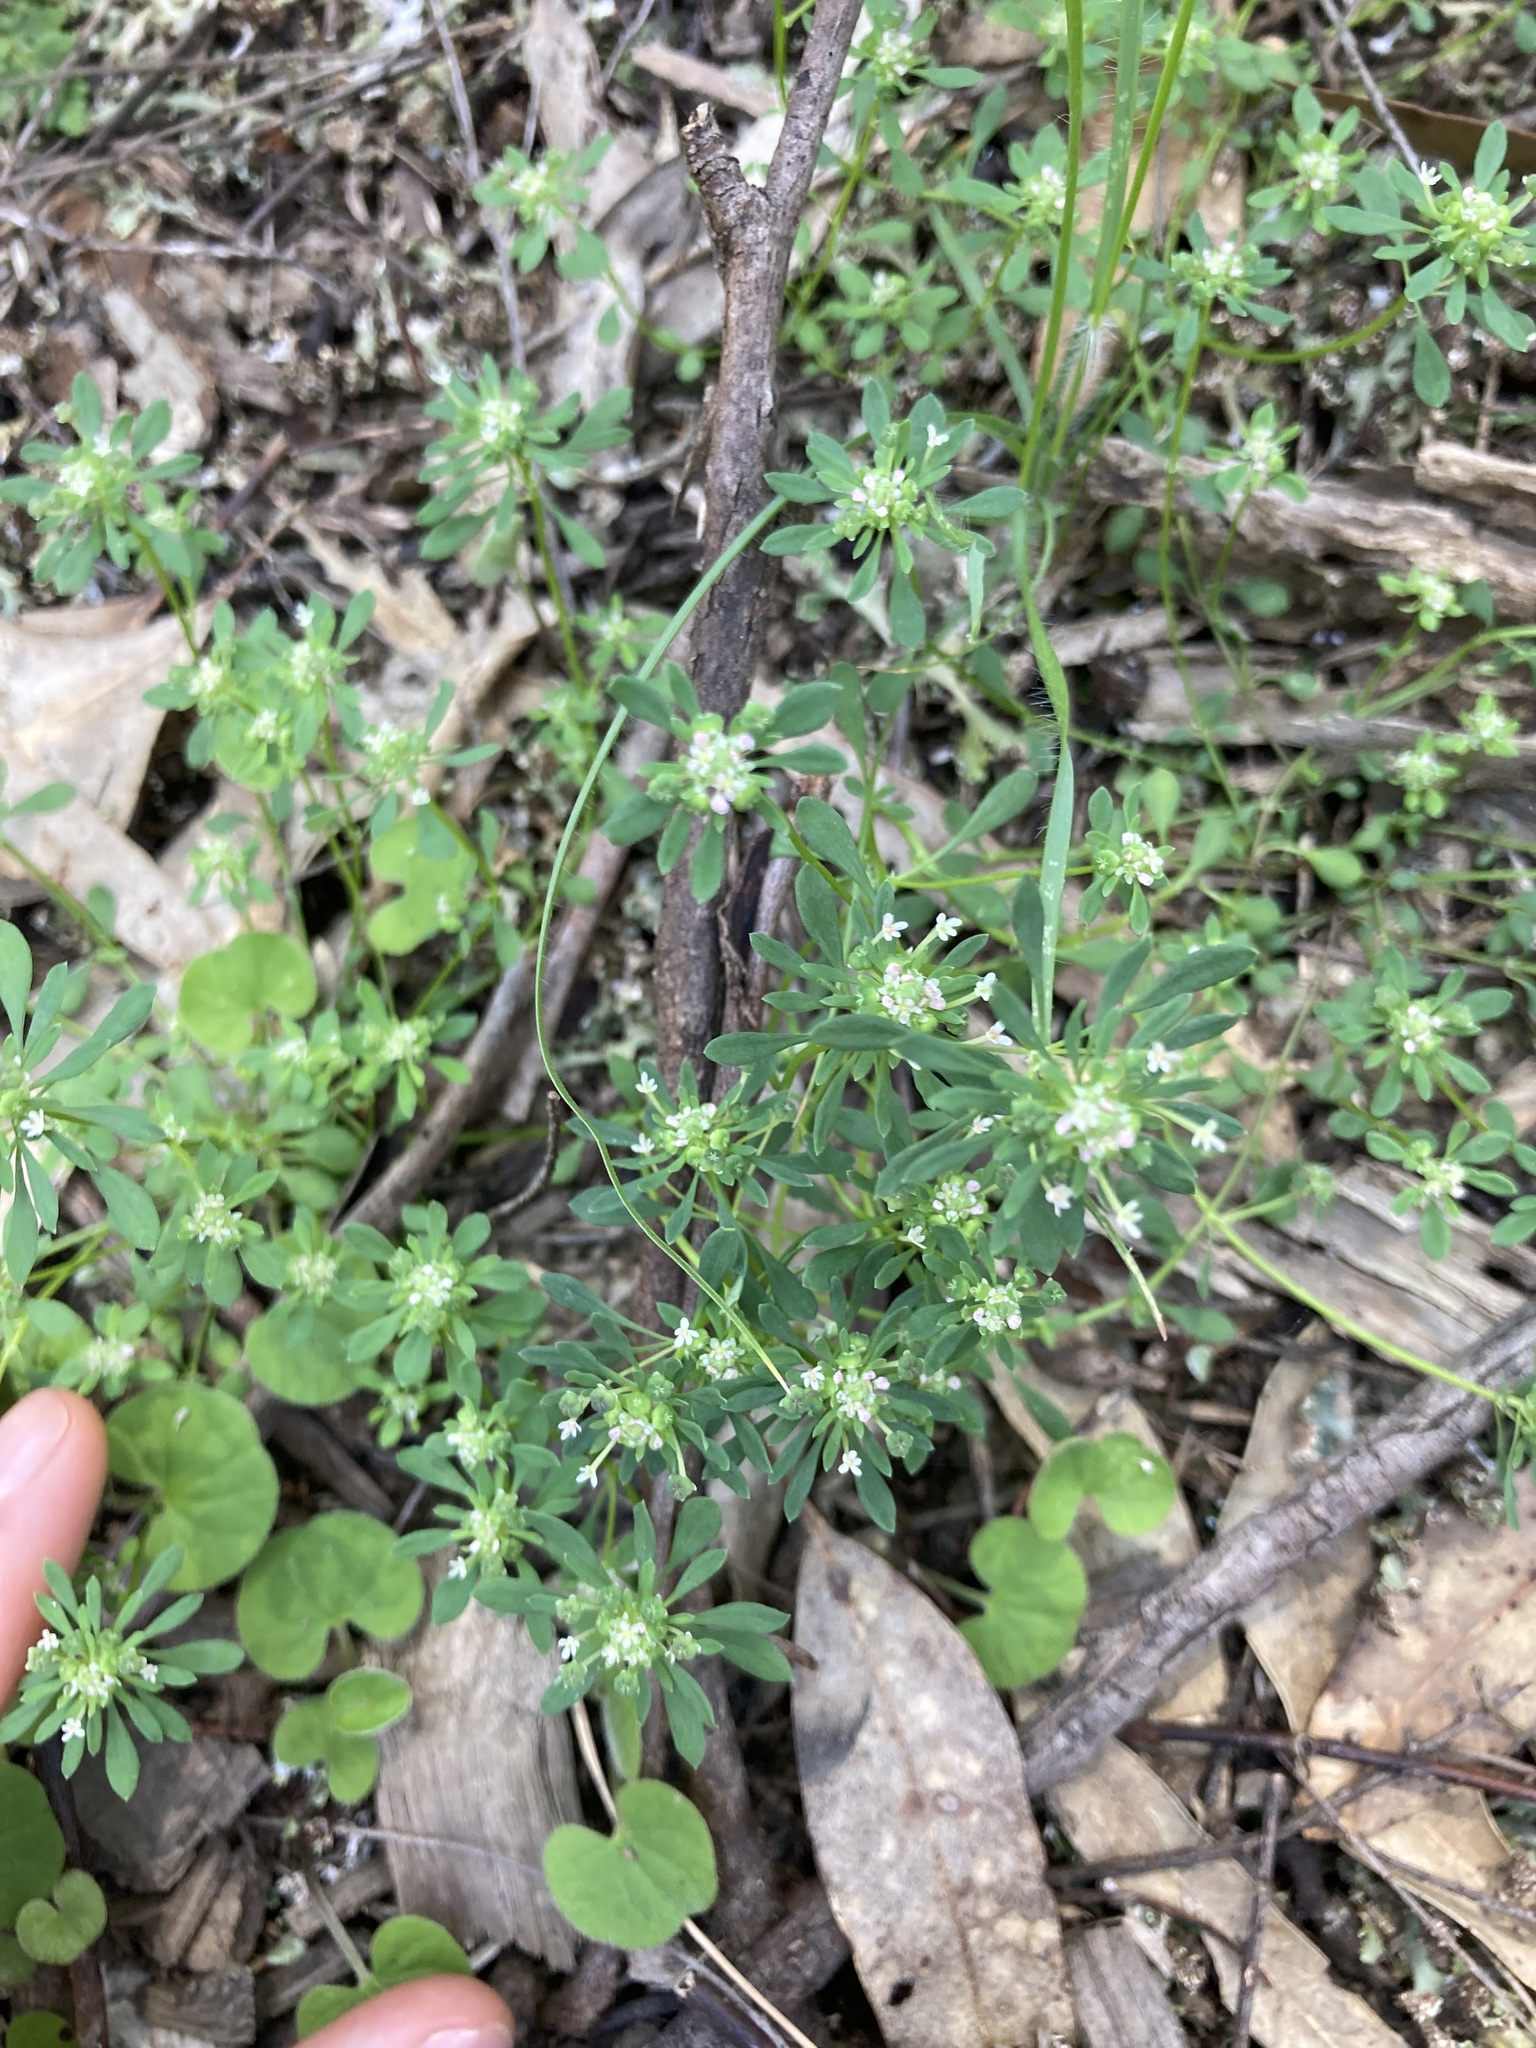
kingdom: Plantae
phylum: Tracheophyta
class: Magnoliopsida
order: Malpighiales
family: Phyllanthaceae
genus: Poranthera
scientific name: Poranthera microphylla
